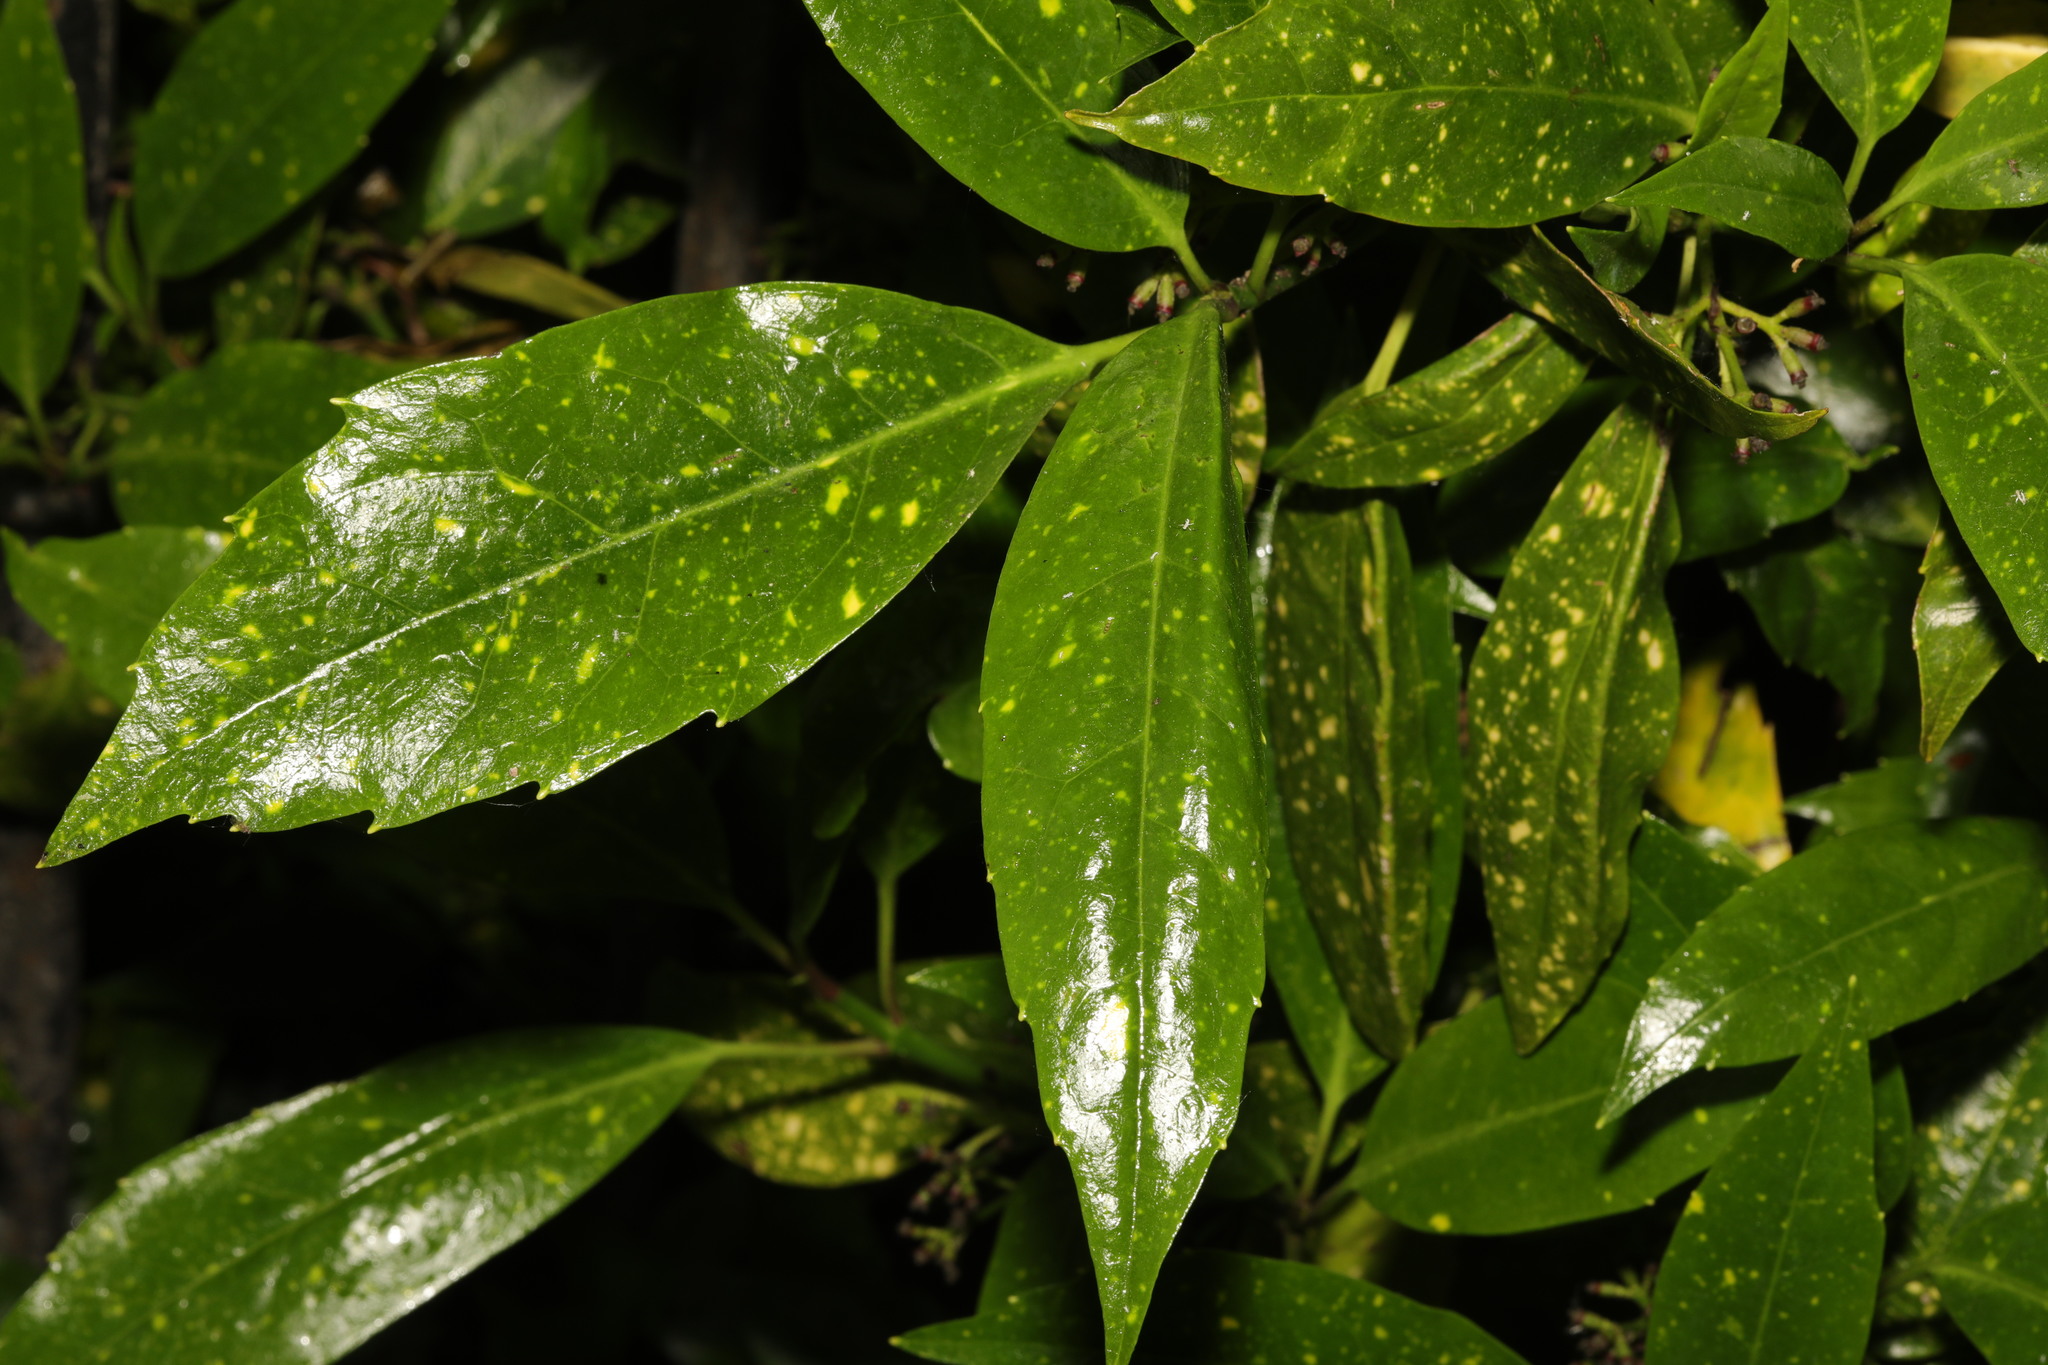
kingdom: Plantae
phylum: Tracheophyta
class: Magnoliopsida
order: Garryales
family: Garryaceae
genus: Aucuba
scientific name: Aucuba japonica
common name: Spotted-laurel
